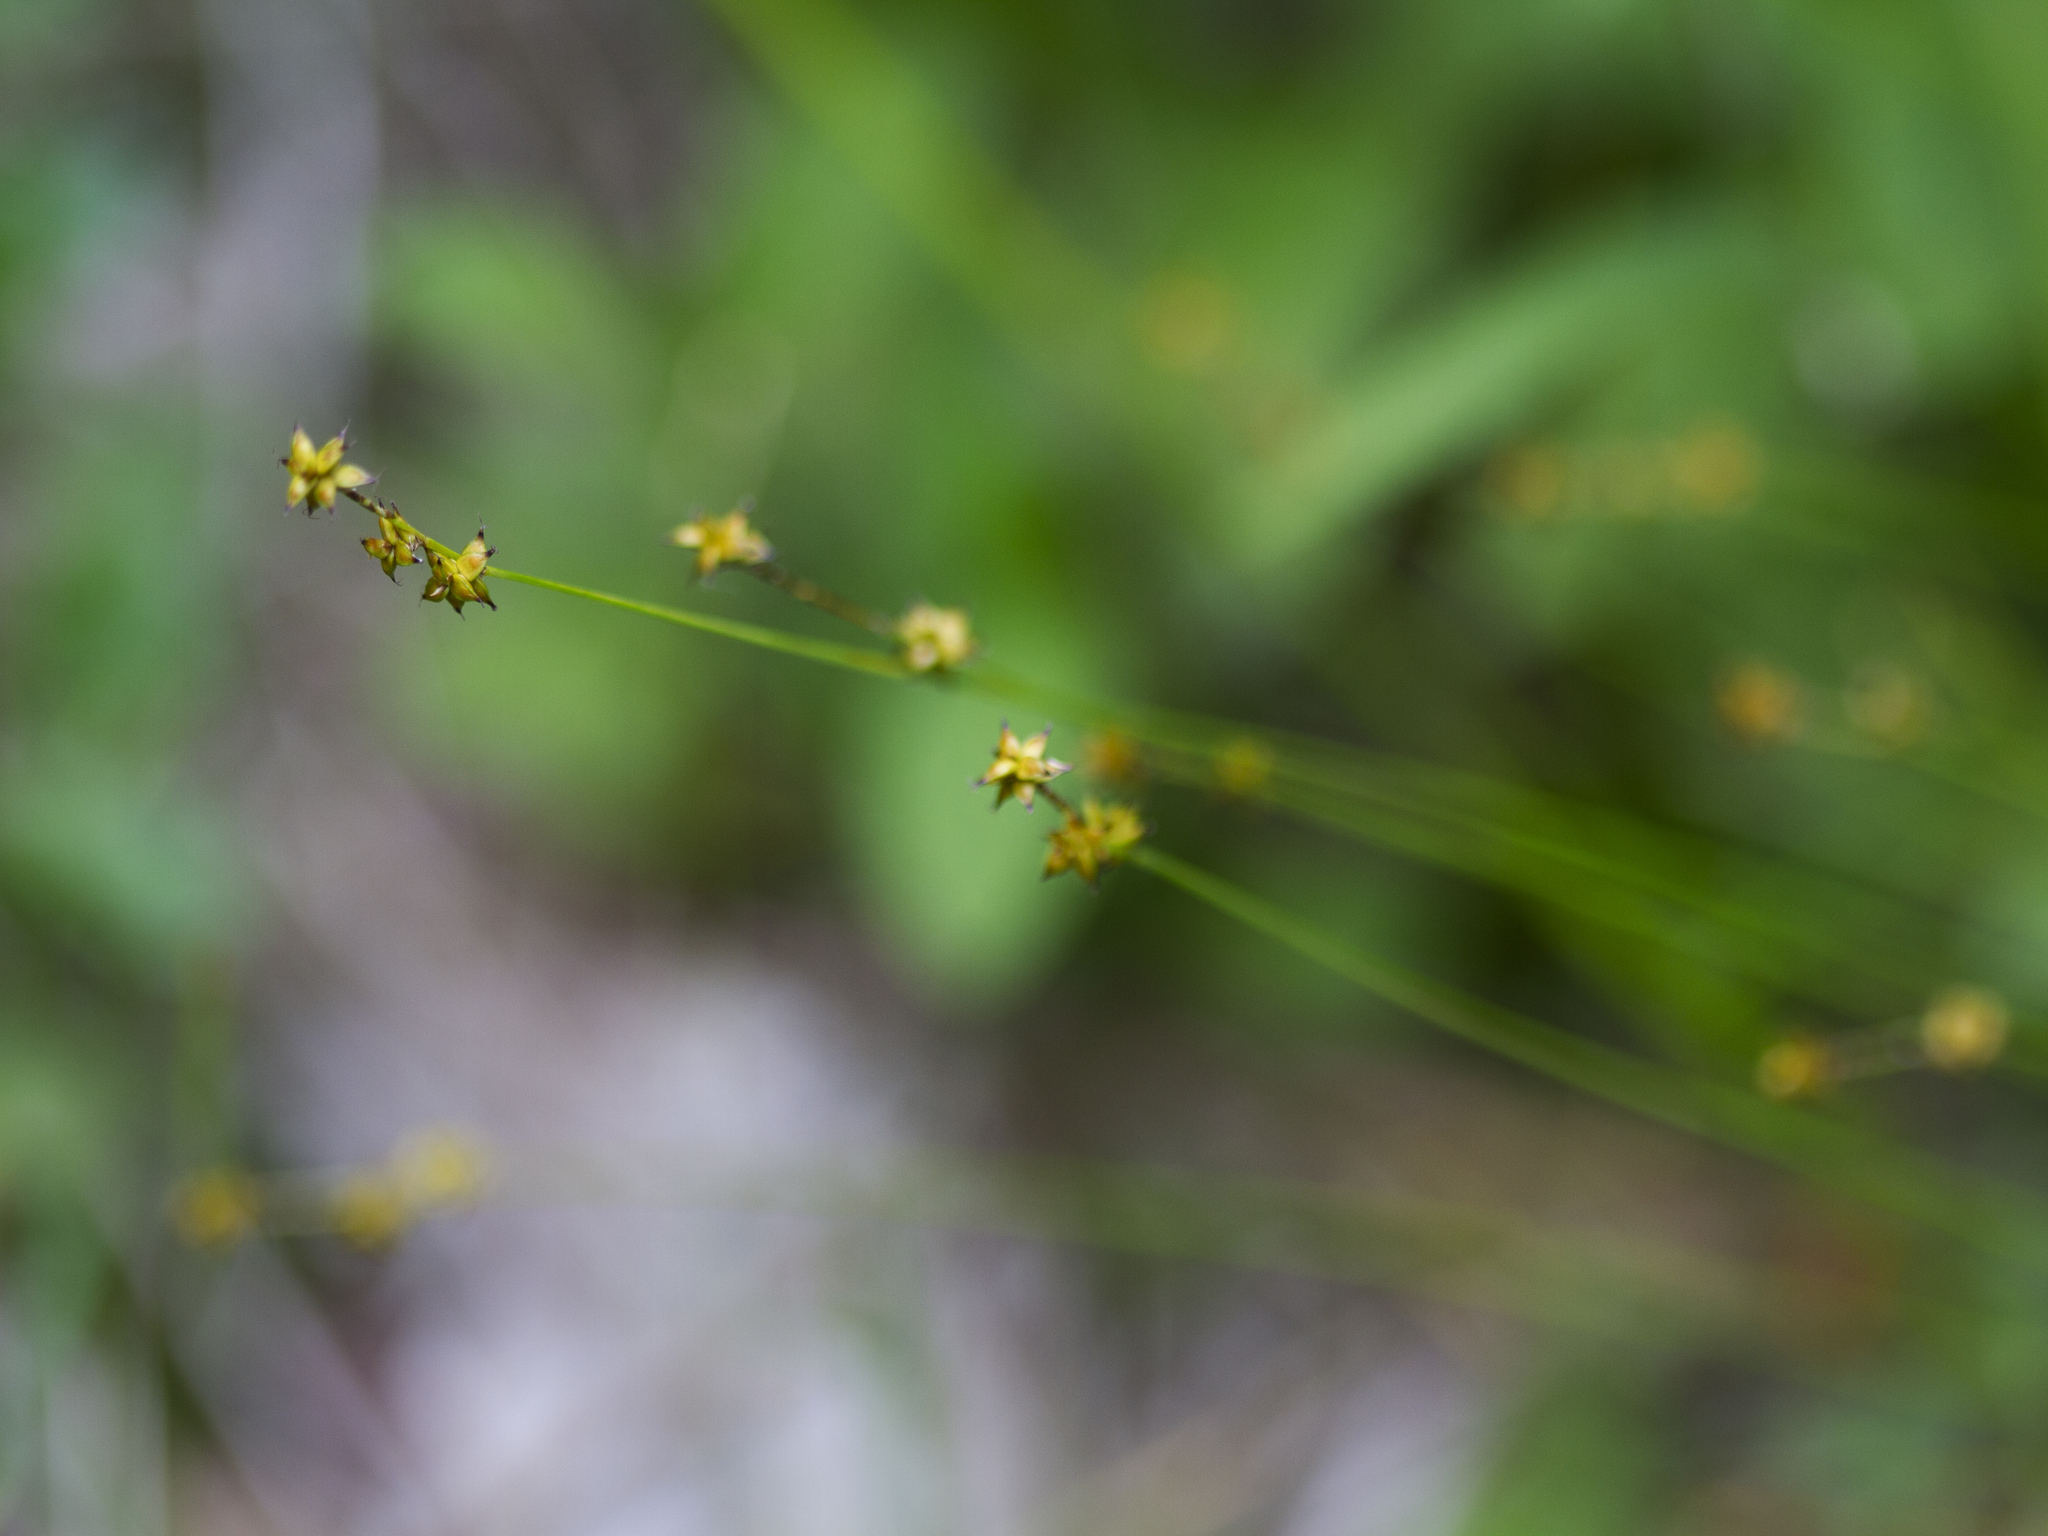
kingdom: Plantae
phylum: Tracheophyta
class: Liliopsida
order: Poales
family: Cyperaceae
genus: Carex
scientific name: Carex interior
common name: Inland sedge
